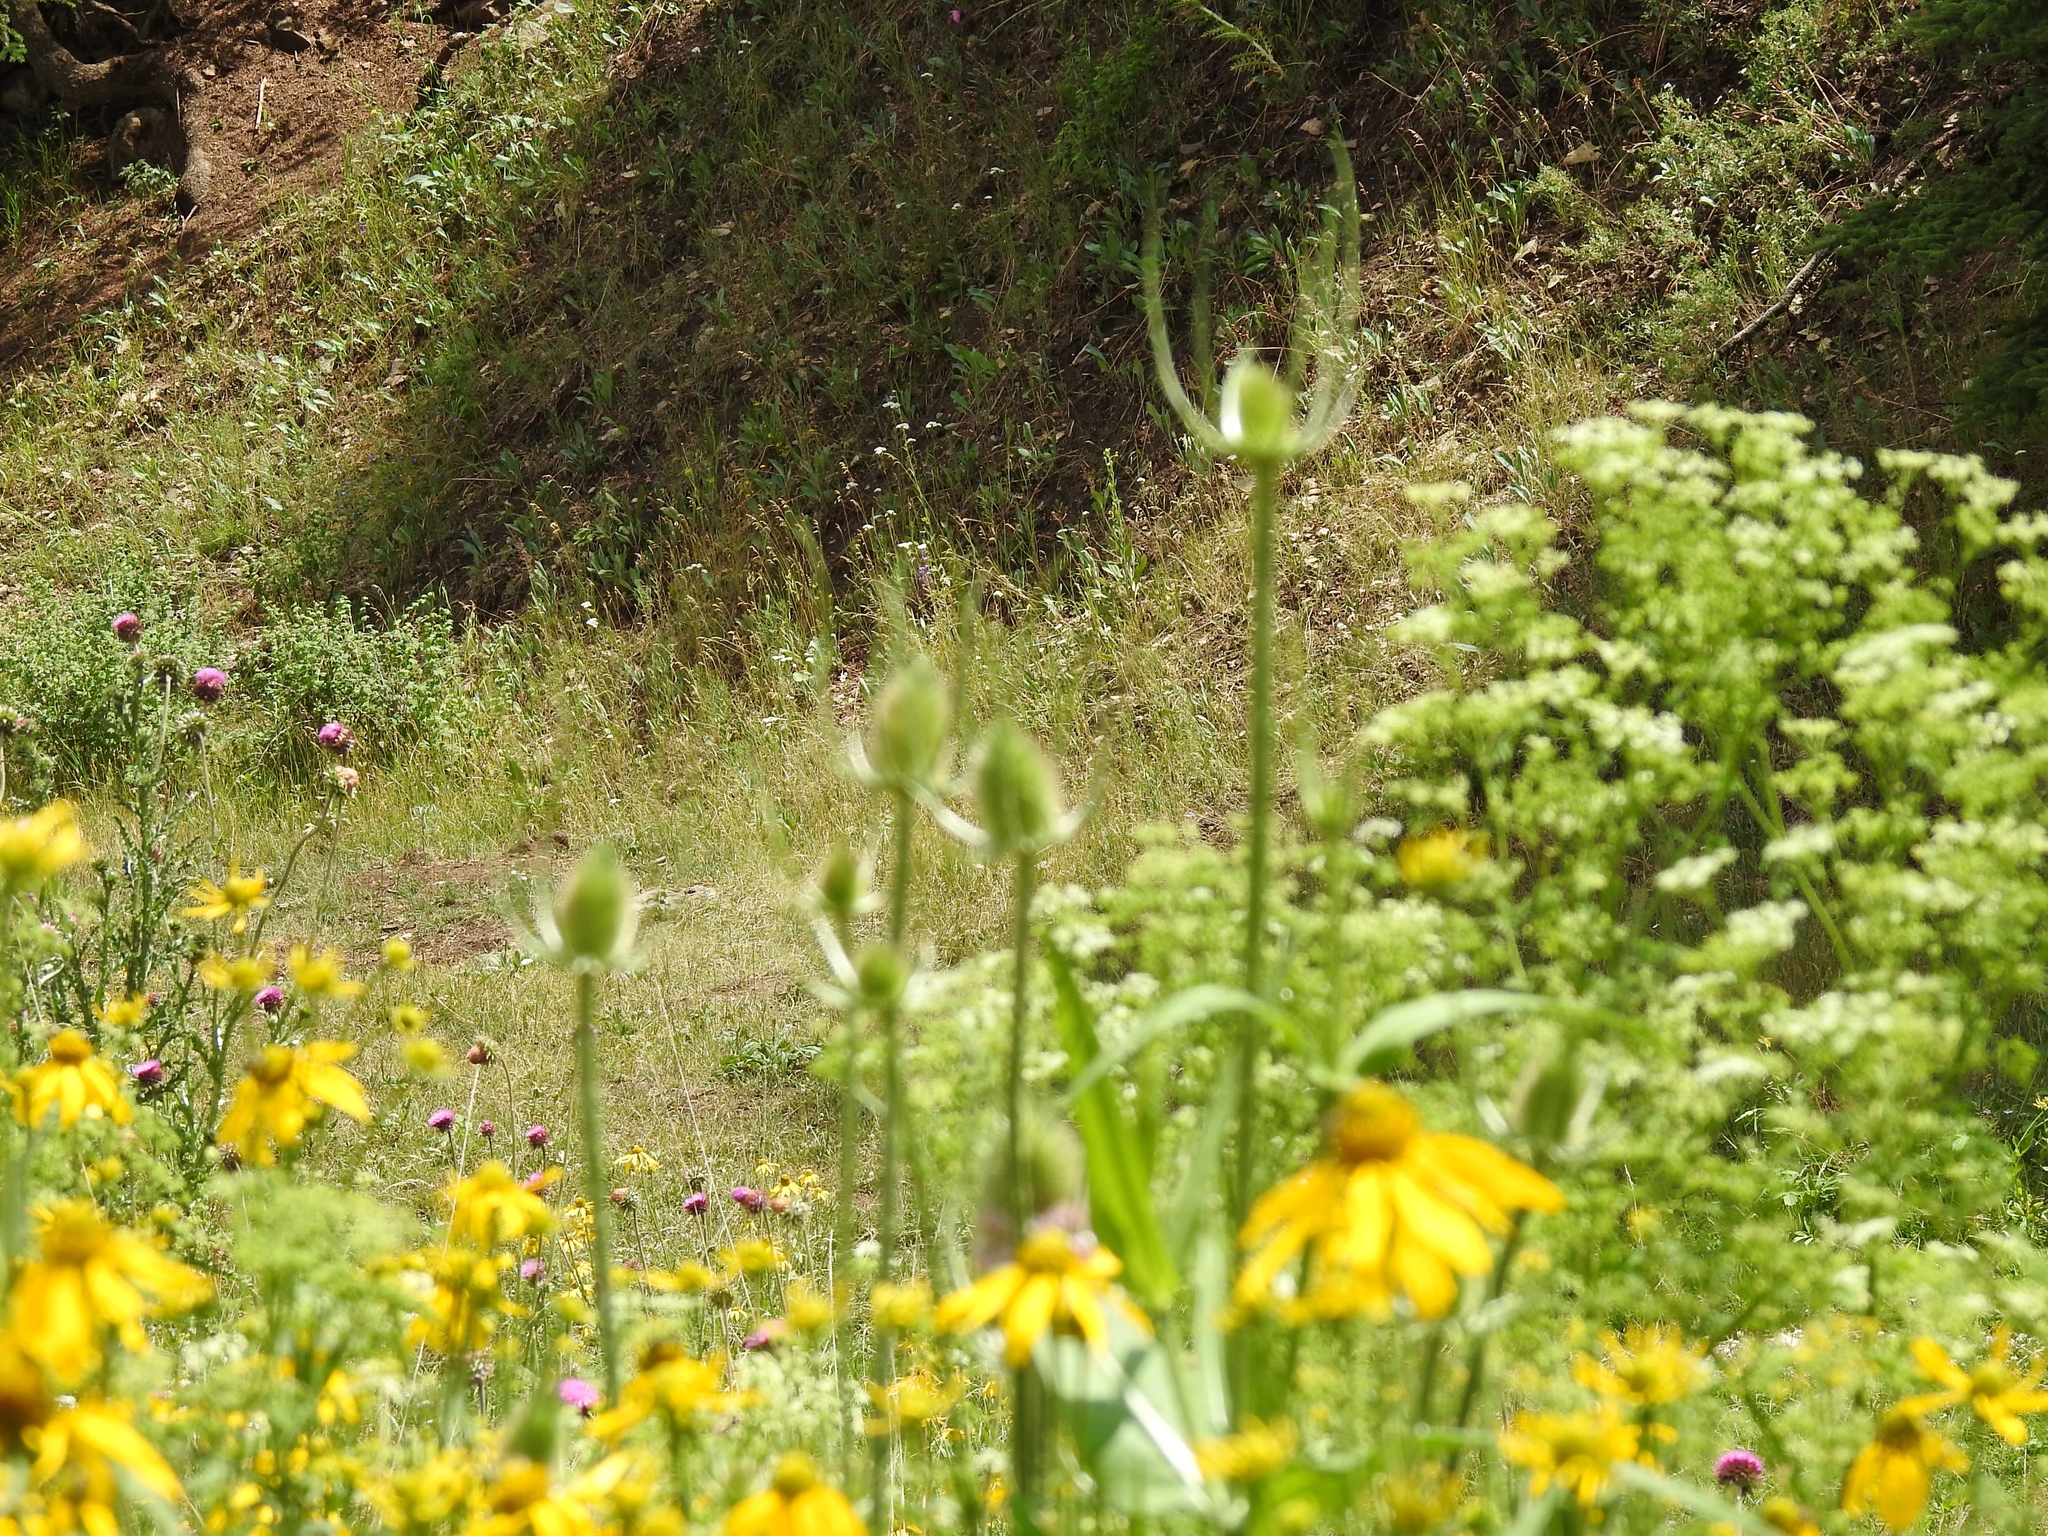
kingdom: Plantae
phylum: Tracheophyta
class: Magnoliopsida
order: Dipsacales
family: Caprifoliaceae
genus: Dipsacus
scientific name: Dipsacus fullonum
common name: Teasel
